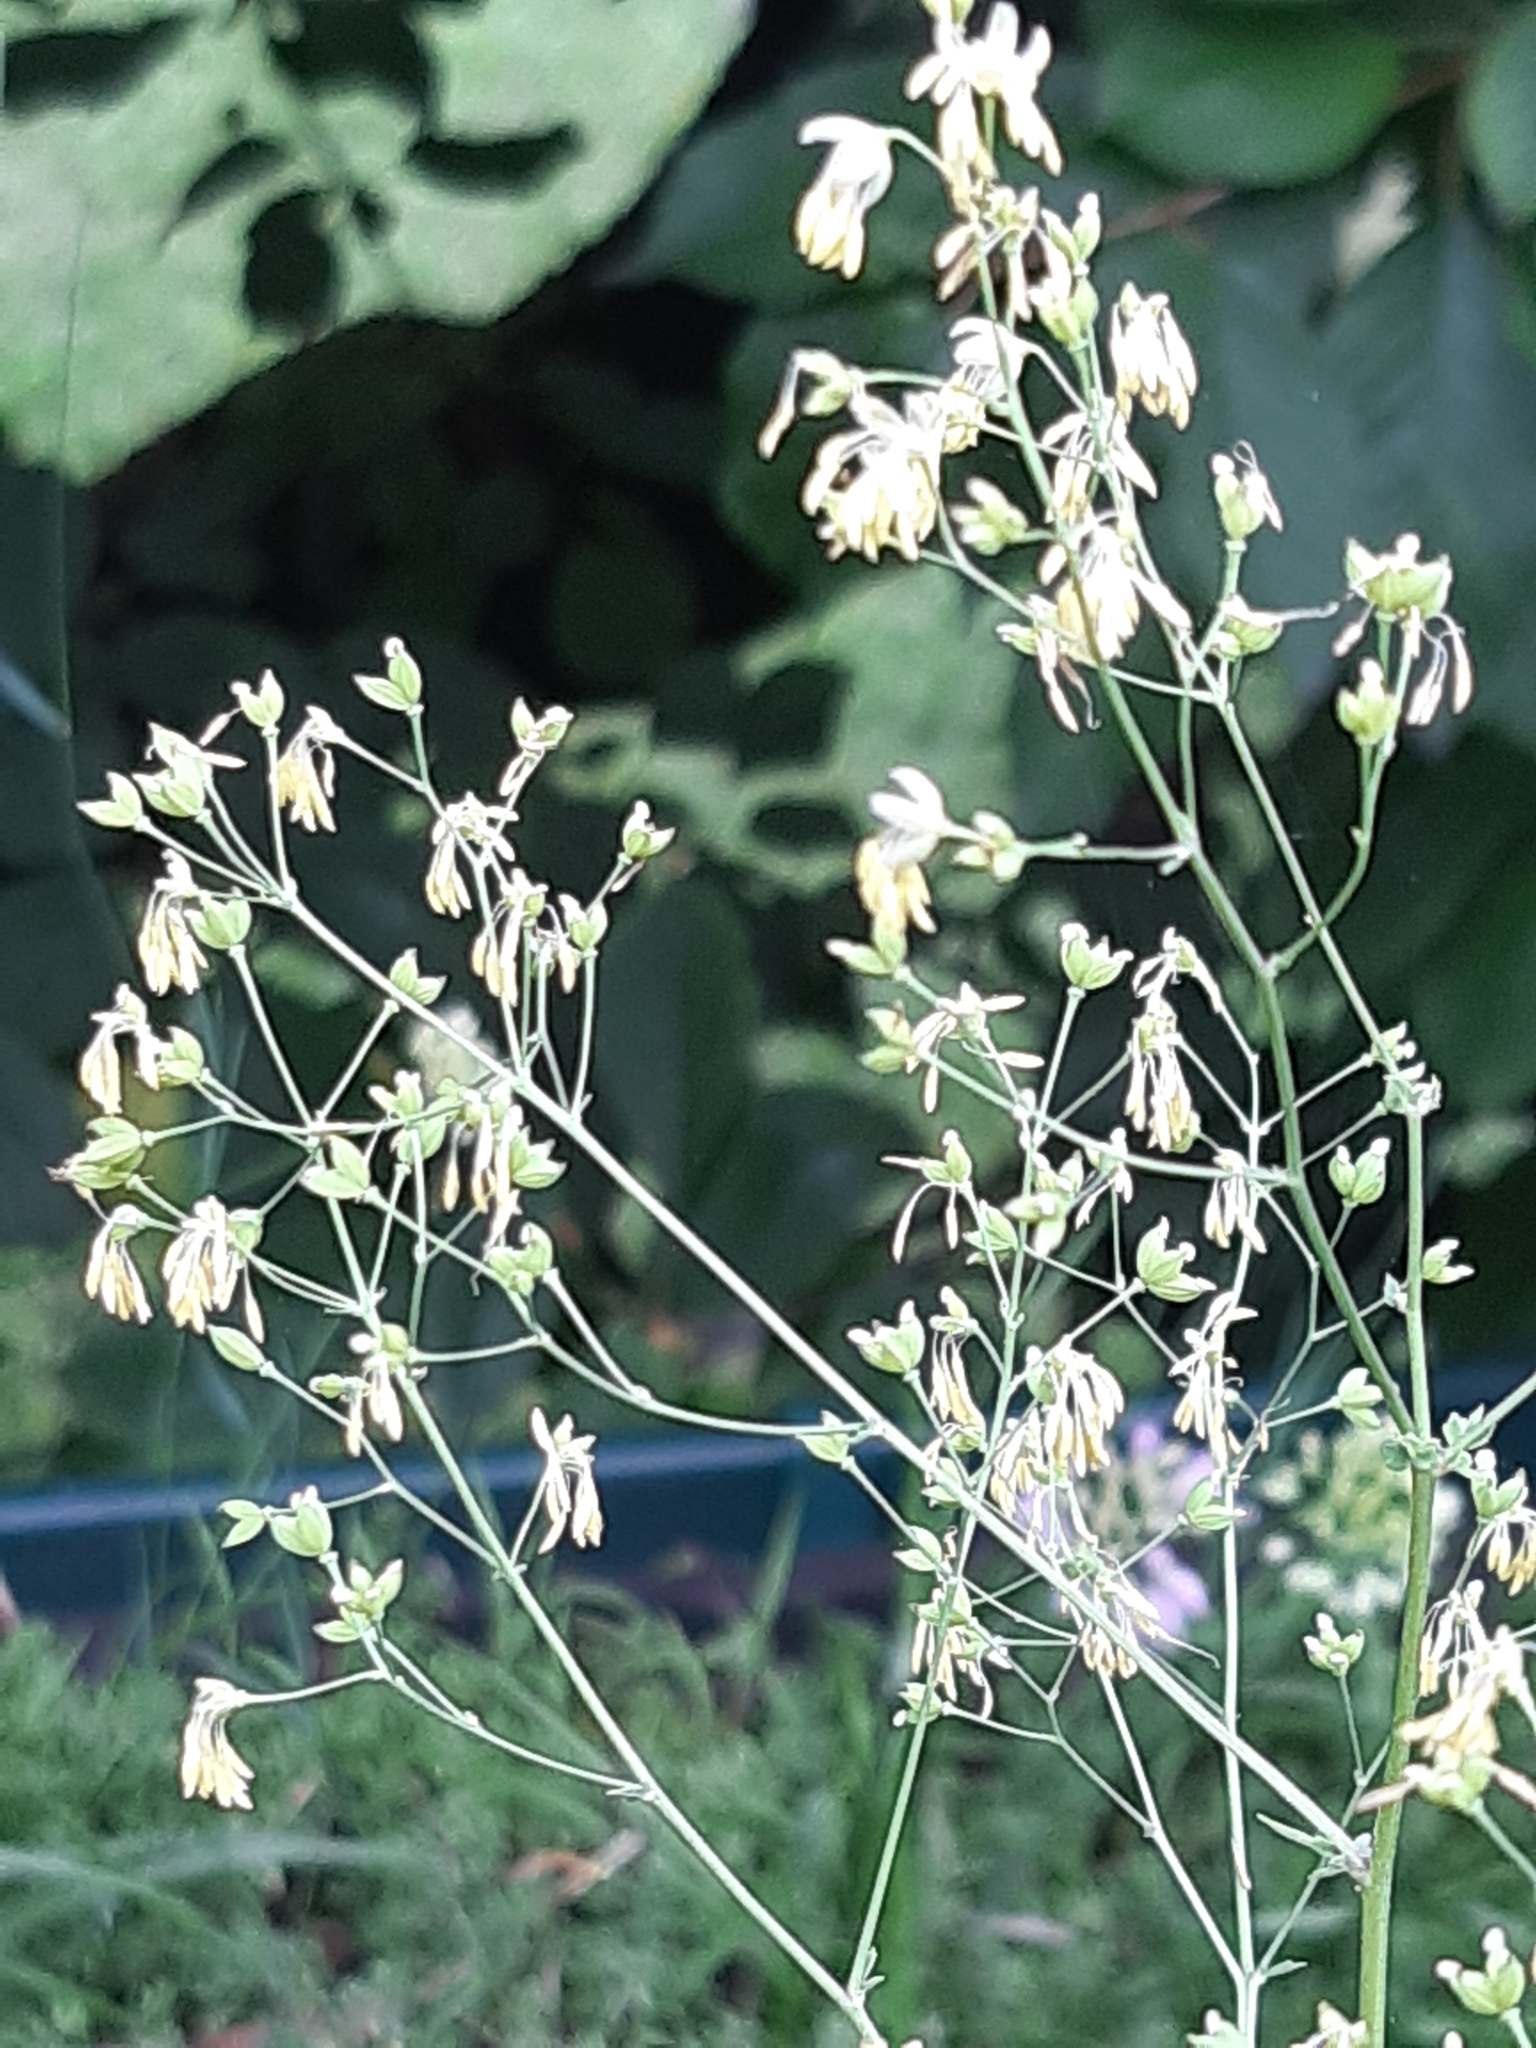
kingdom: Plantae
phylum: Tracheophyta
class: Magnoliopsida
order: Ranunculales
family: Ranunculaceae
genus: Thalictrum
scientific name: Thalictrum minus
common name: Lesser meadow-rue
